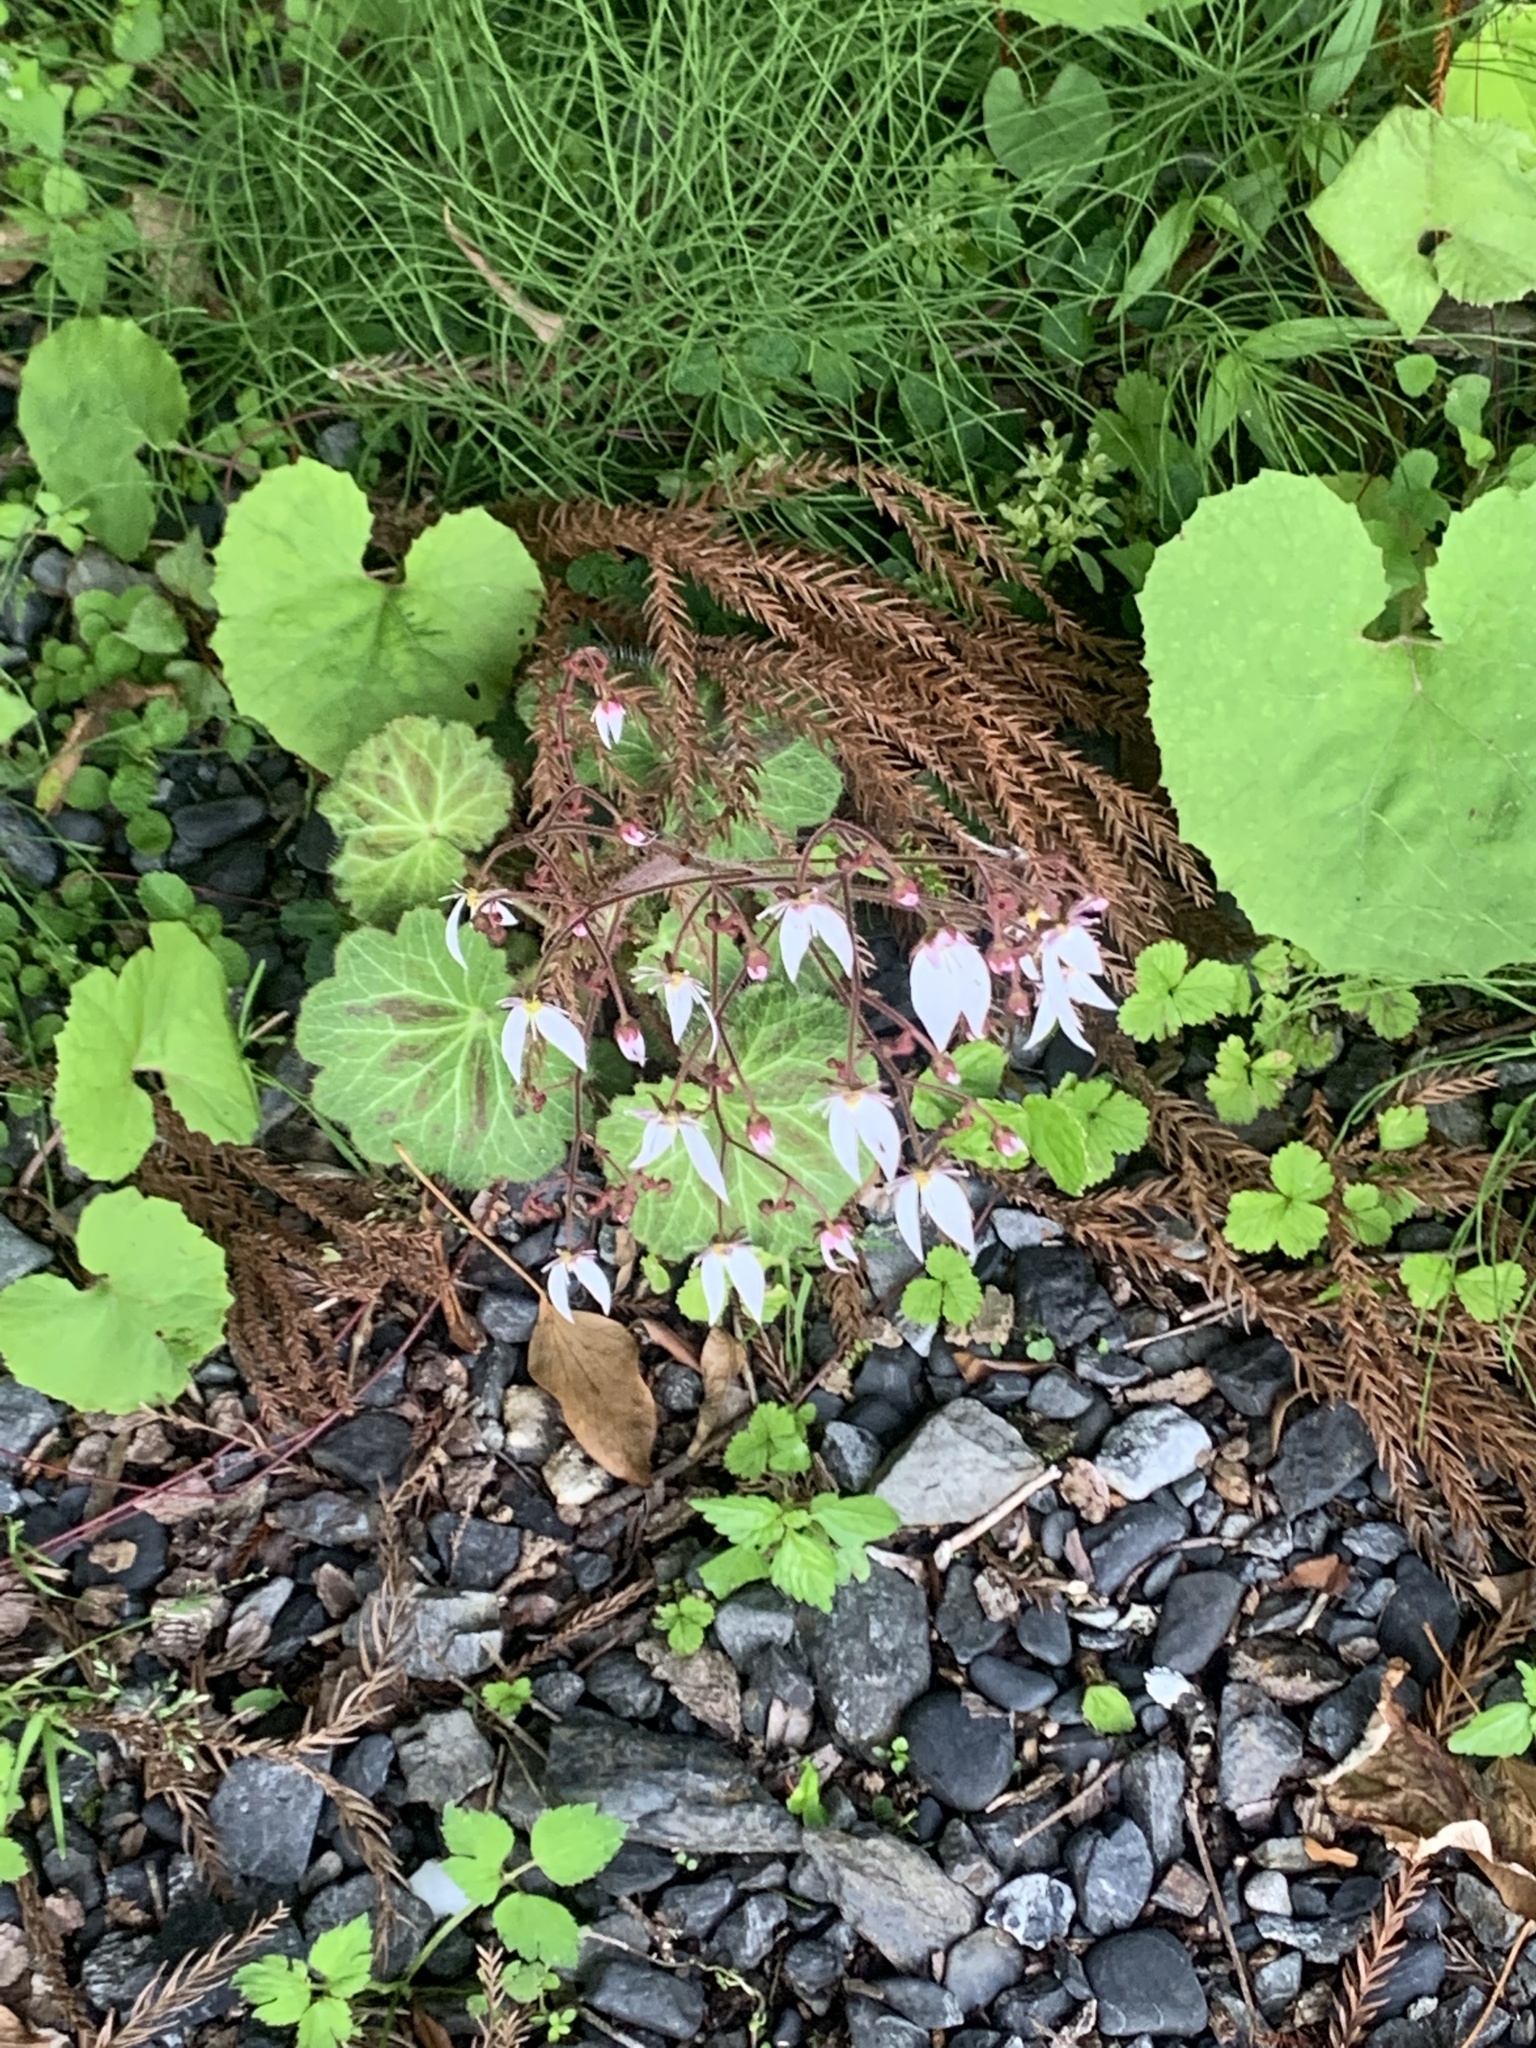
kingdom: Plantae
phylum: Tracheophyta
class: Magnoliopsida
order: Saxifragales
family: Saxifragaceae
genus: Saxifraga
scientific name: Saxifraga stolonifera
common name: Creeping saxifrage
